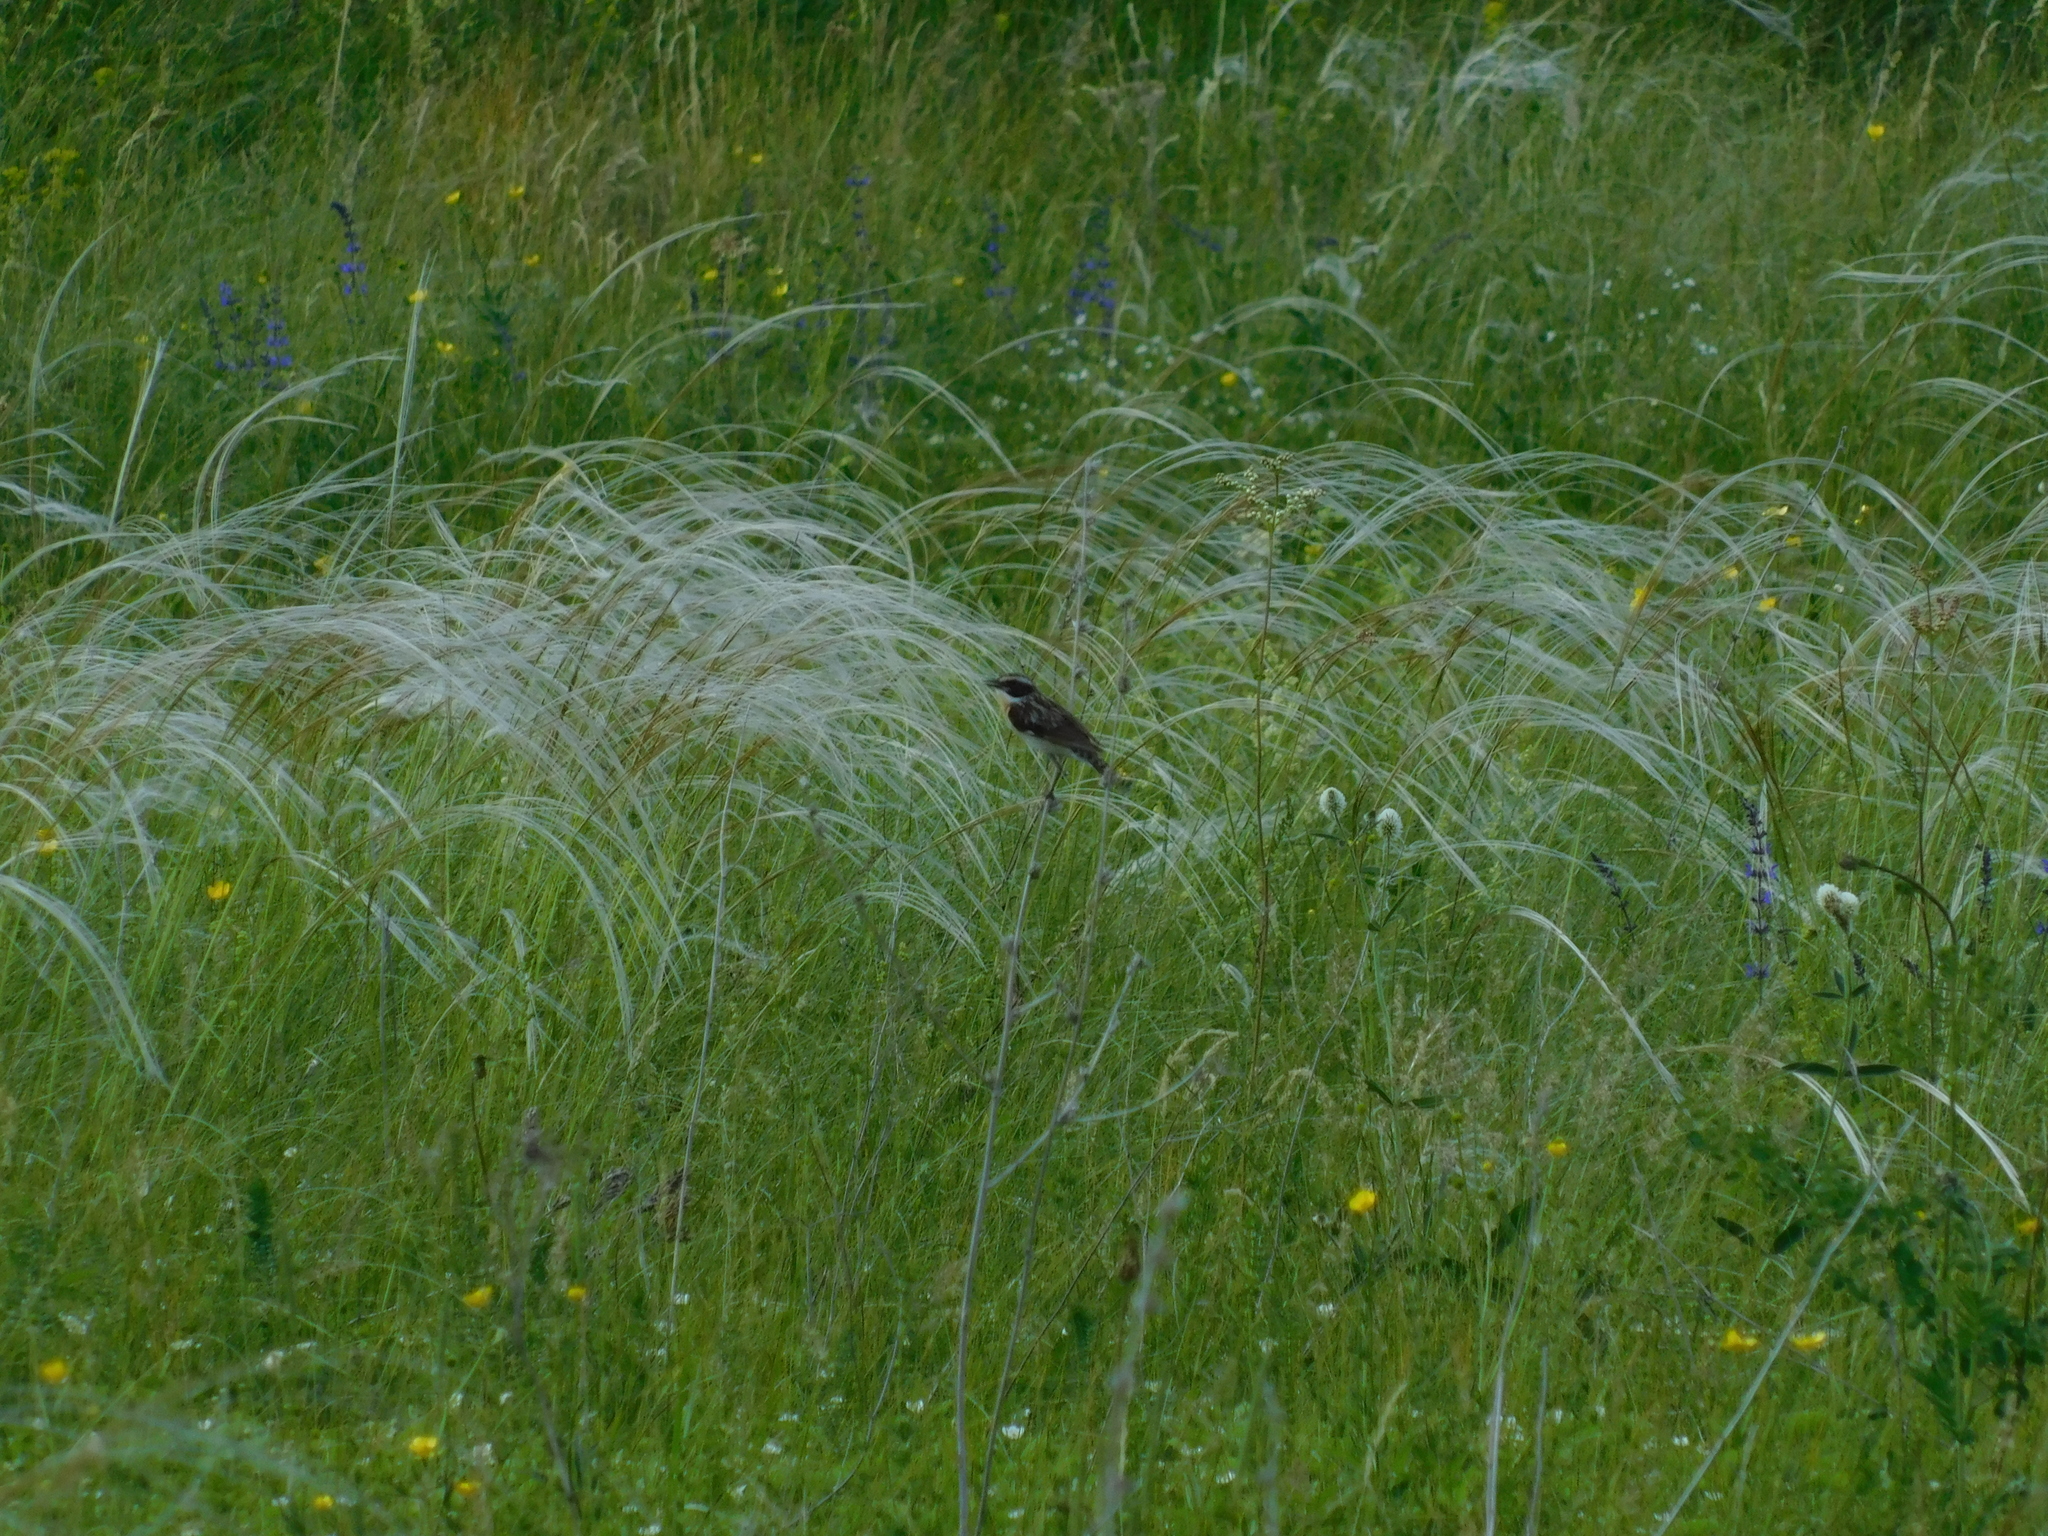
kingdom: Animalia
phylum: Chordata
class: Aves
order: Passeriformes
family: Muscicapidae
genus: Saxicola
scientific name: Saxicola rubetra
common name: Whinchat
